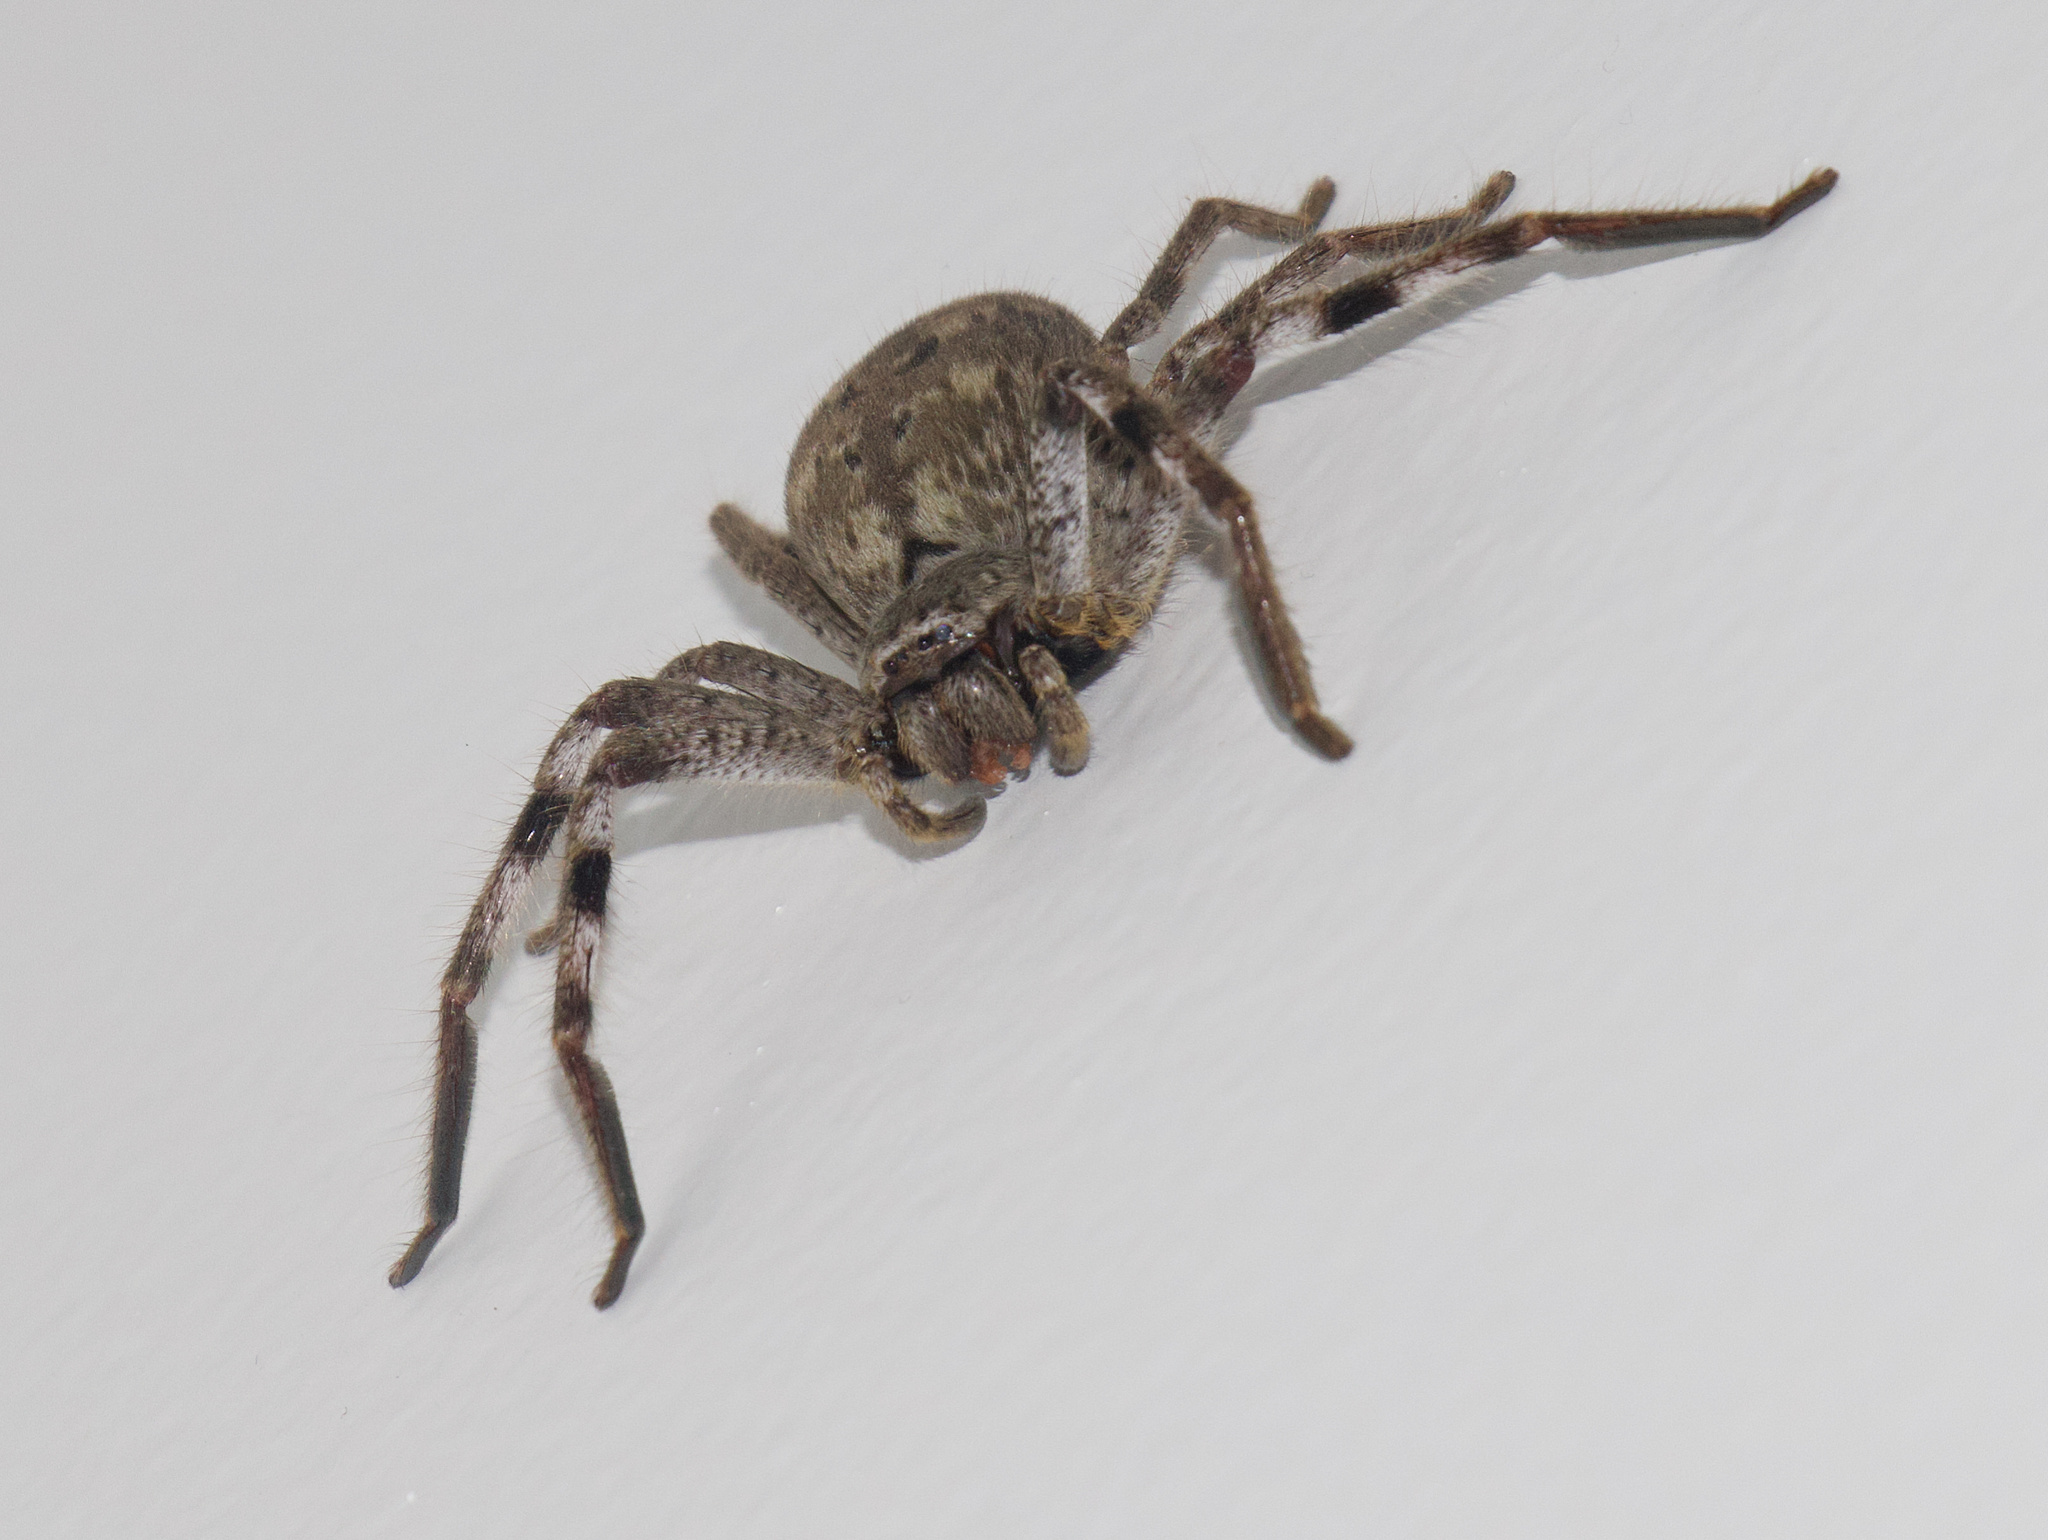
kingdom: Animalia
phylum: Arthropoda
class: Arachnida
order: Araneae
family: Sparassidae
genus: Isopedella
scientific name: Isopedella victorialis
